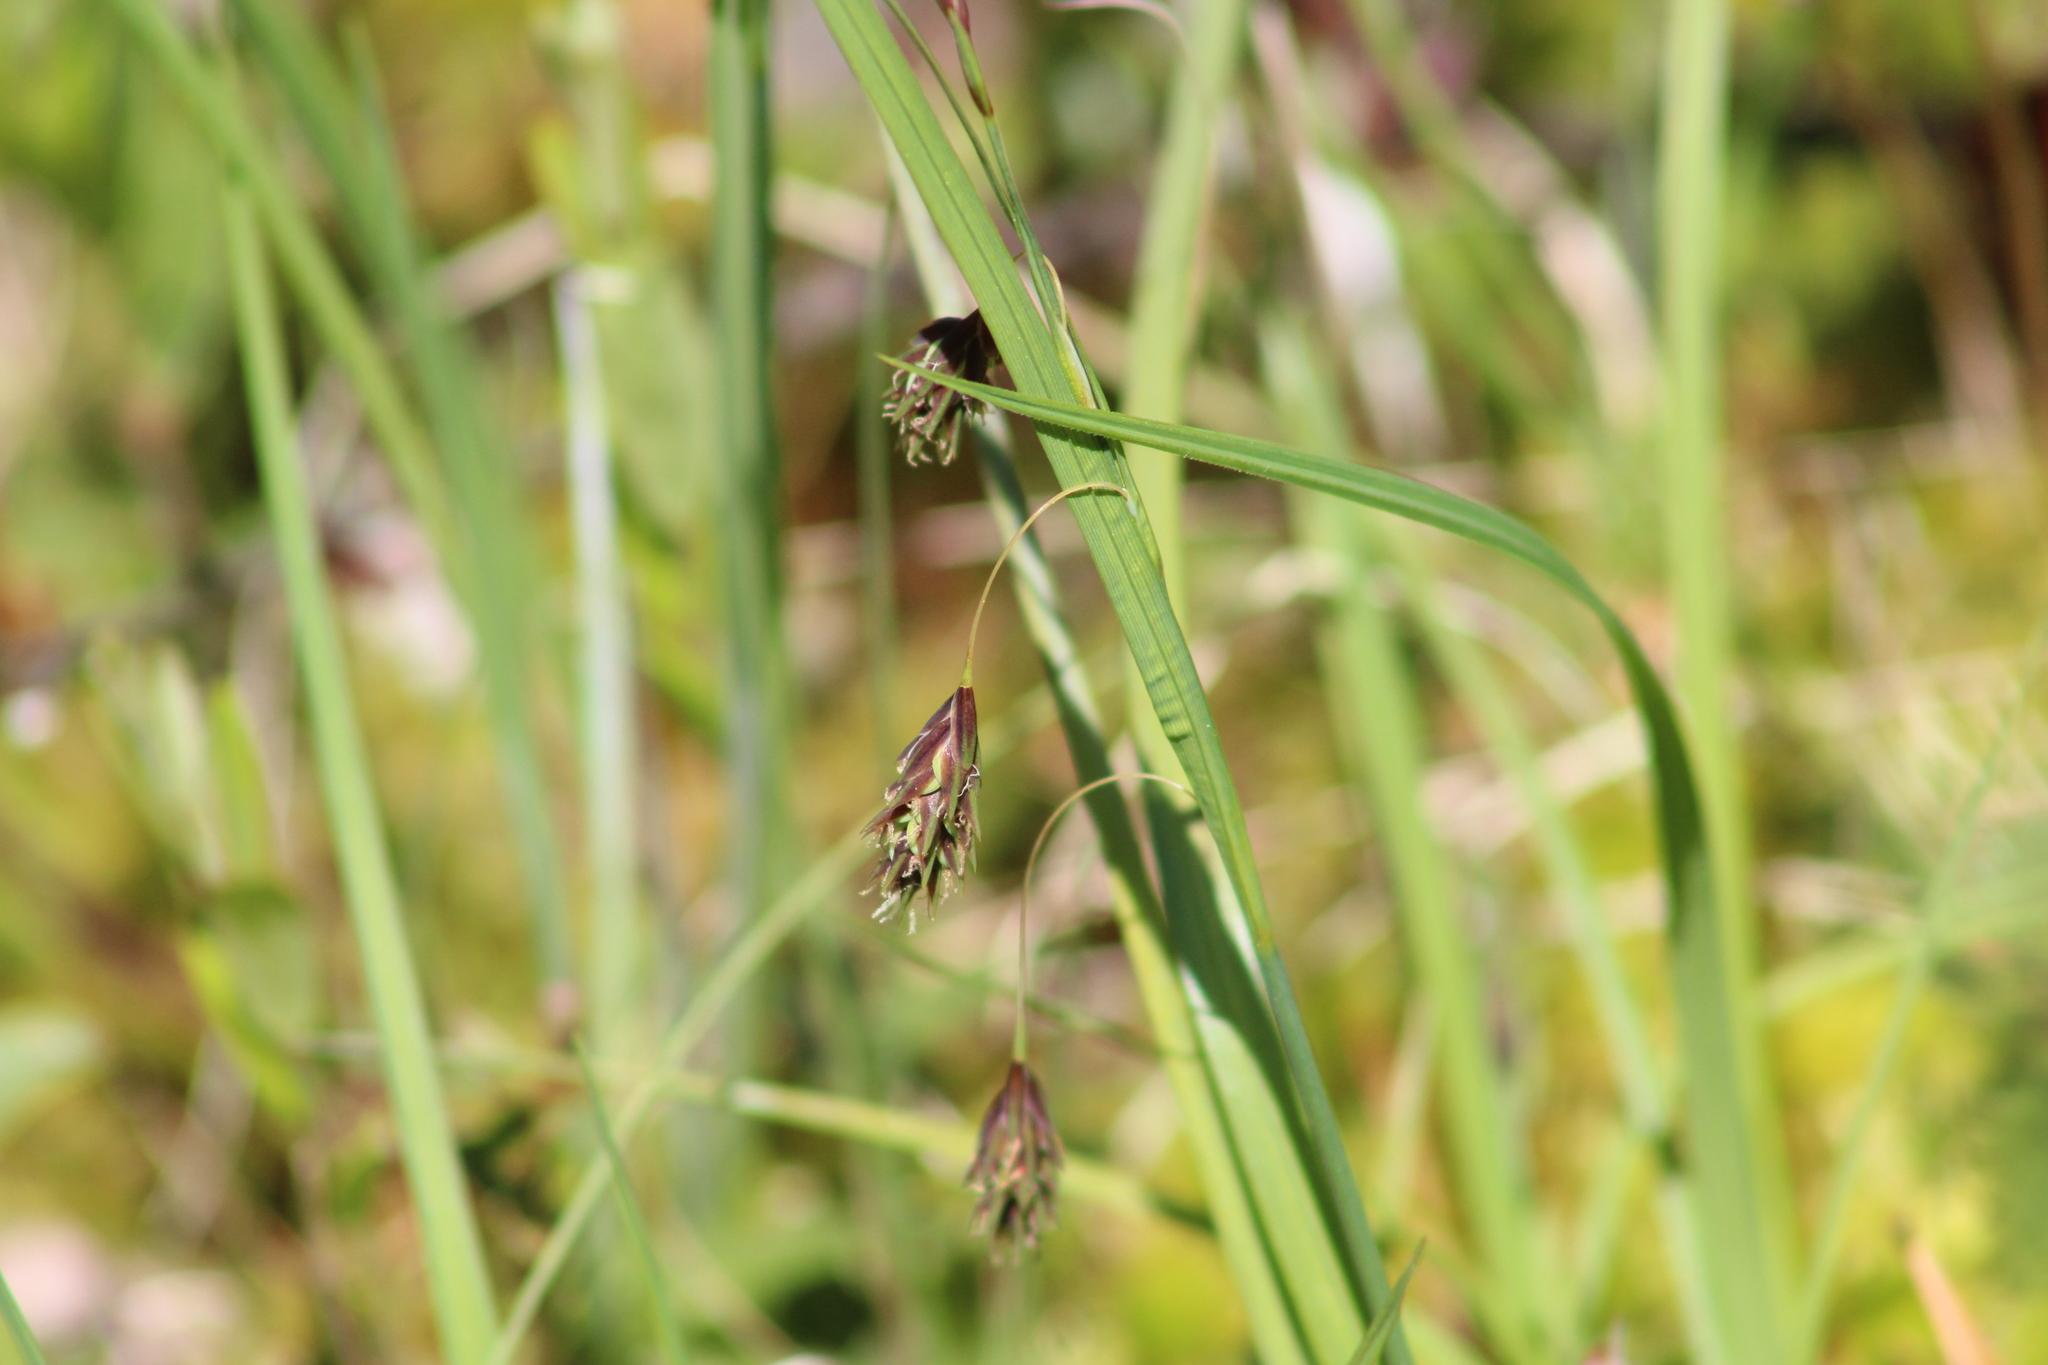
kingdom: Plantae
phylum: Tracheophyta
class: Liliopsida
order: Poales
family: Cyperaceae
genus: Carex
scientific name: Carex magellanica
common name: Bog sedge
